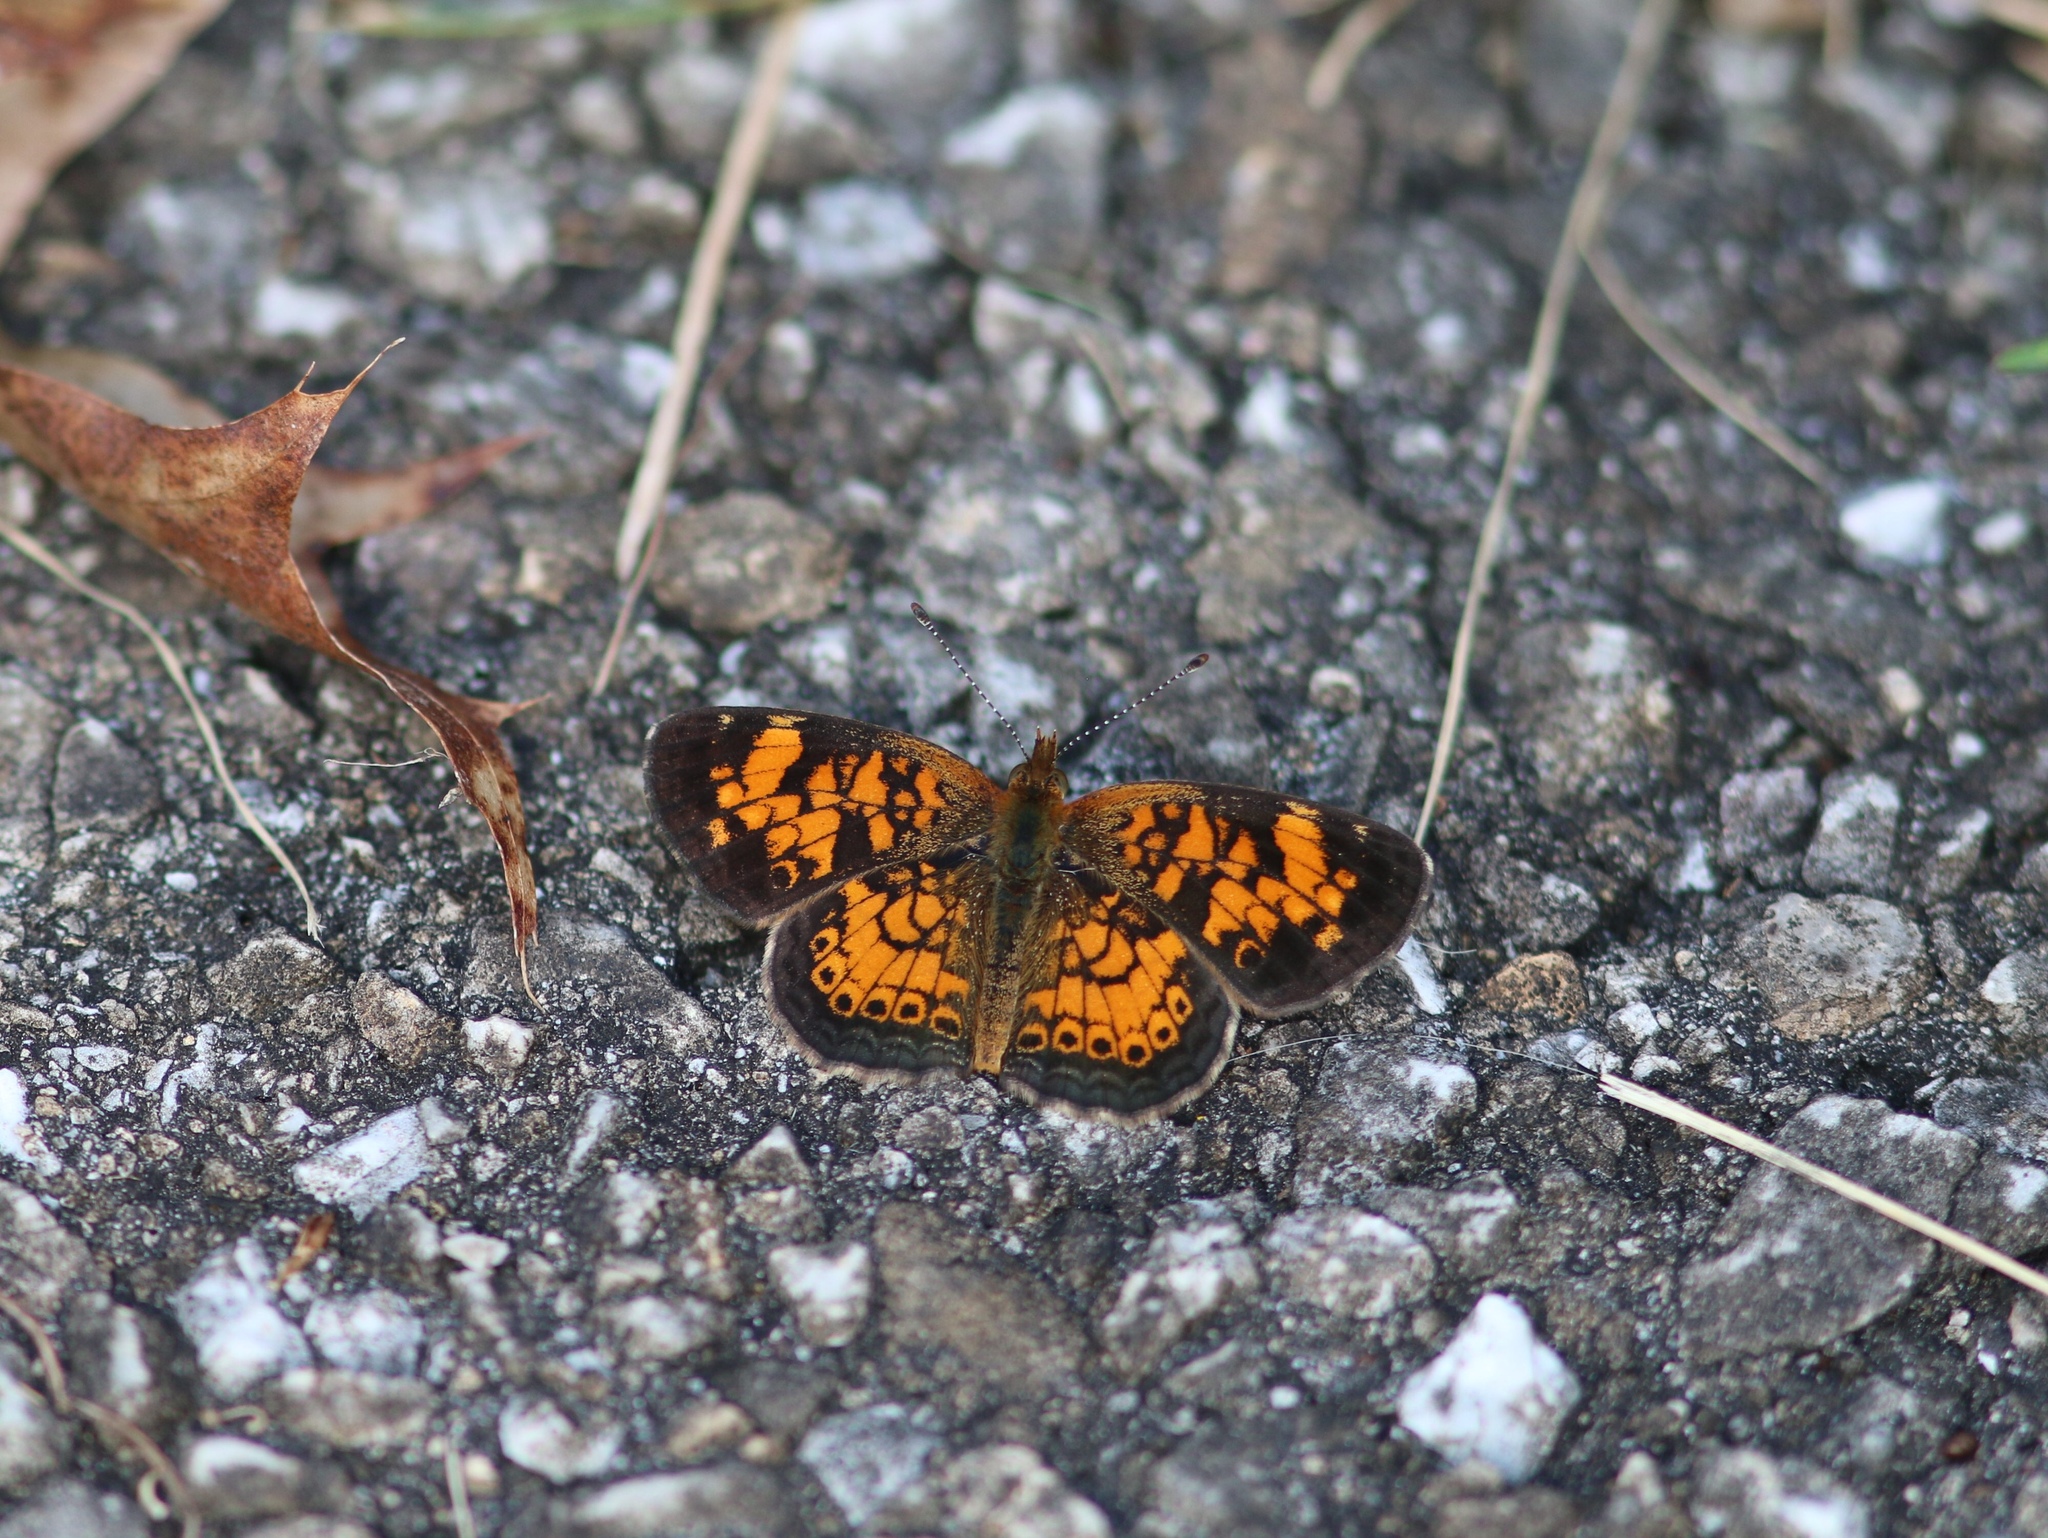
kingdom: Animalia
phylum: Arthropoda
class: Insecta
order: Lepidoptera
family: Nymphalidae
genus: Phyciodes
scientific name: Phyciodes tharos
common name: Pearl crescent
